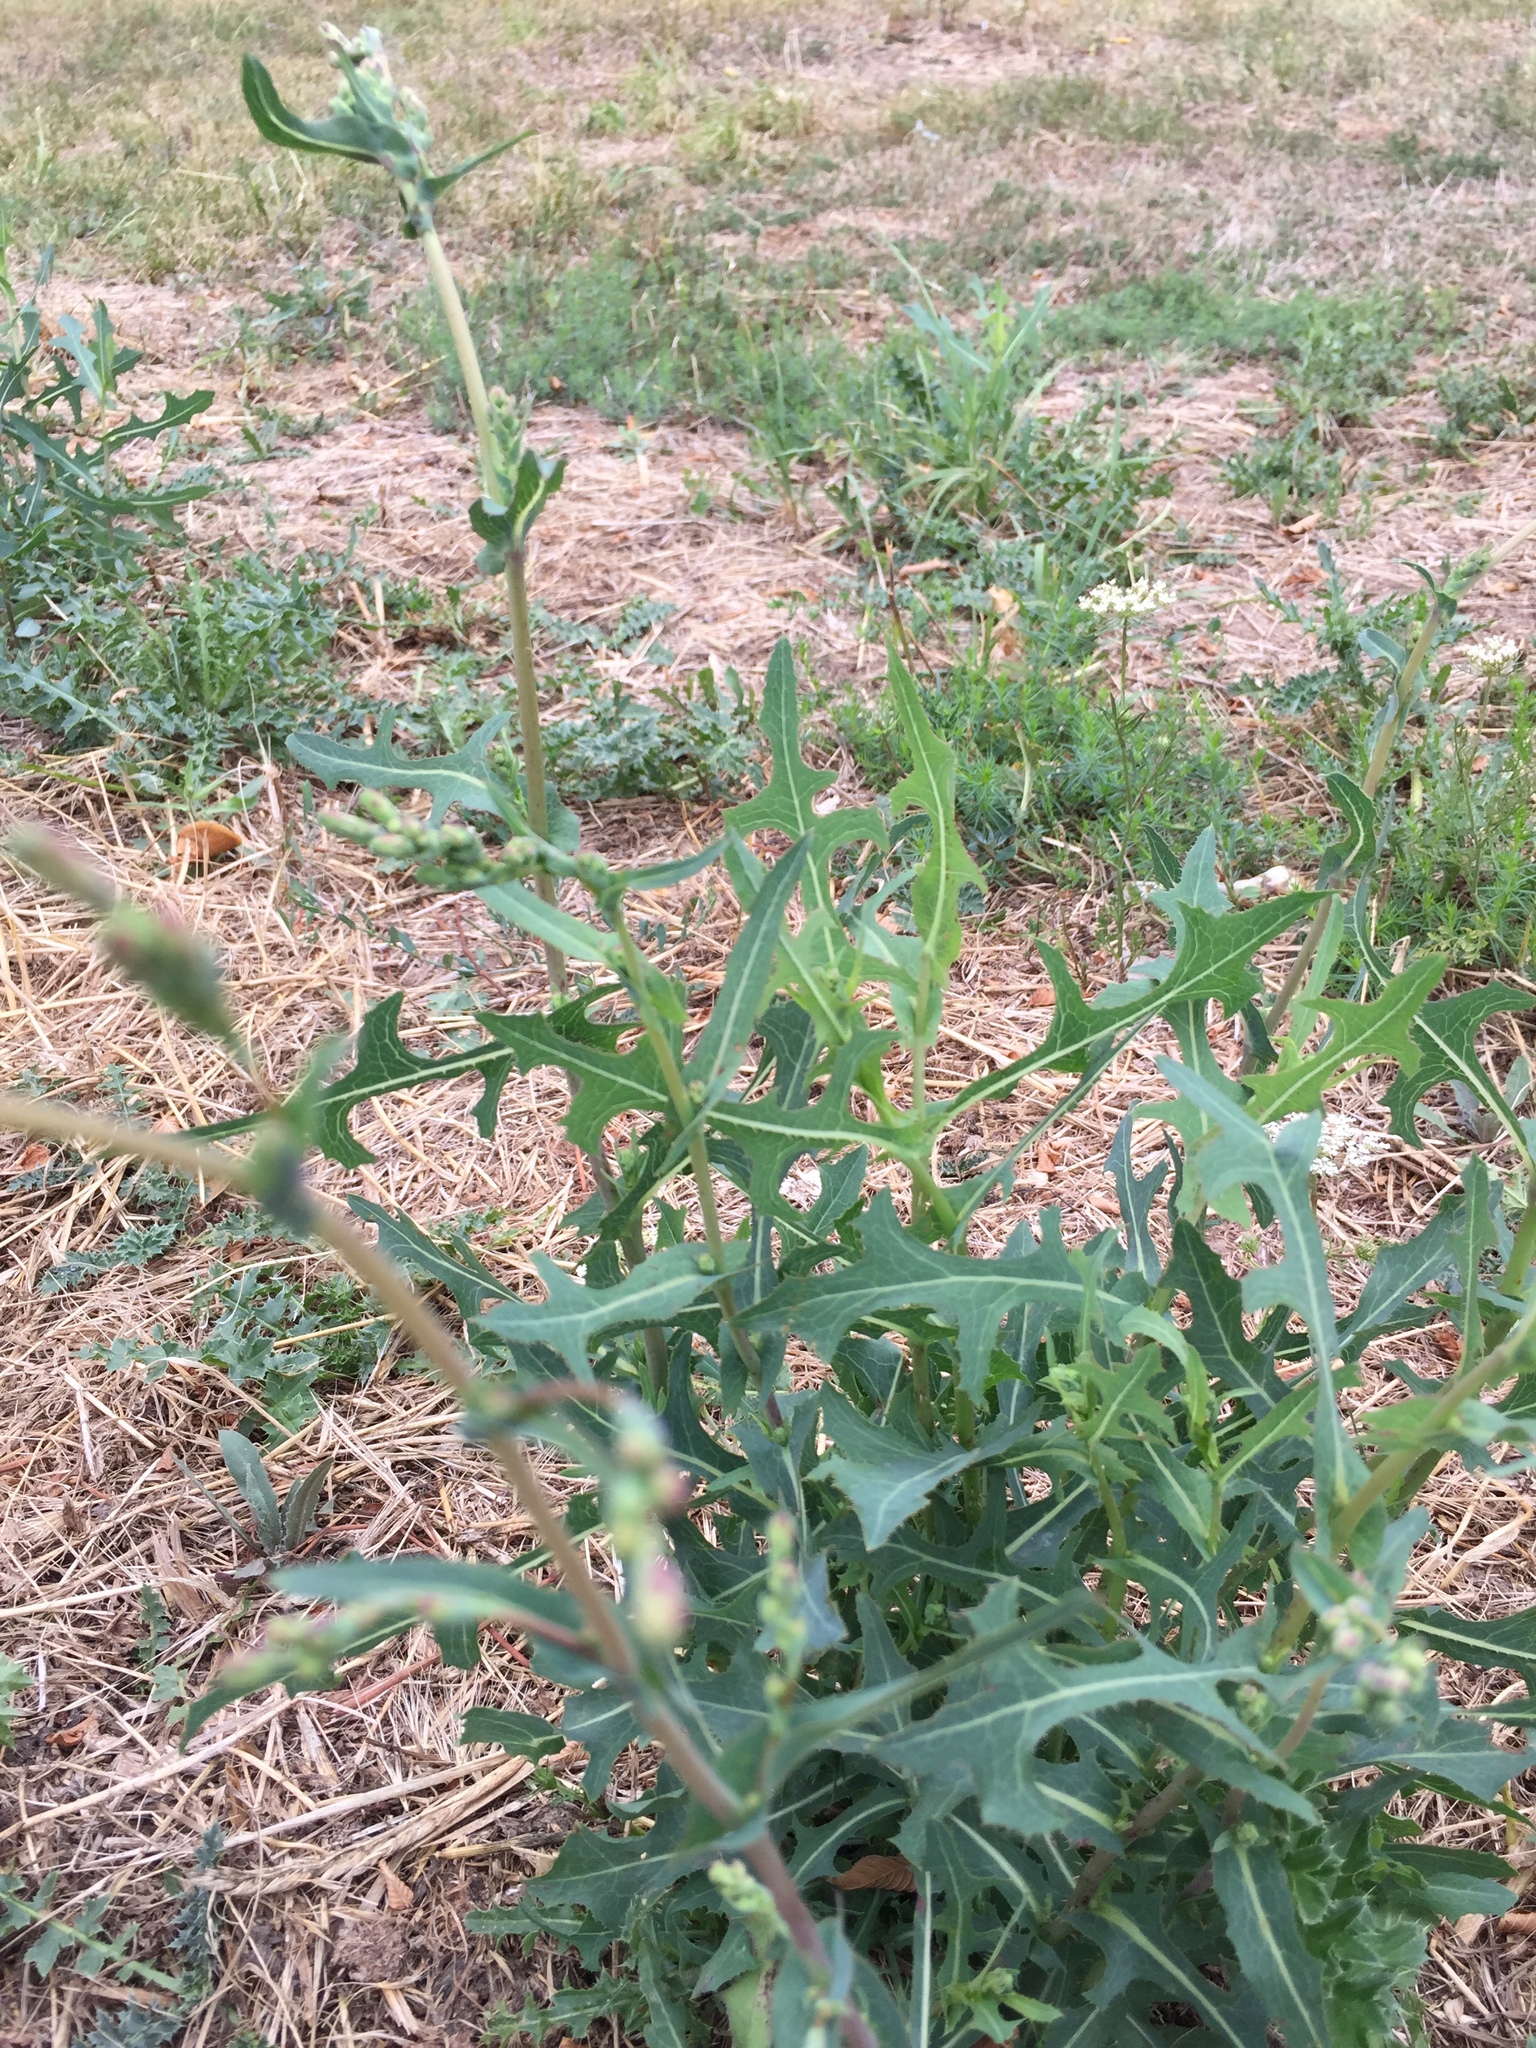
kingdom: Plantae
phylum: Tracheophyta
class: Magnoliopsida
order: Asterales
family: Asteraceae
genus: Lactuca
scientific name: Lactuca serriola
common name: Prickly lettuce
